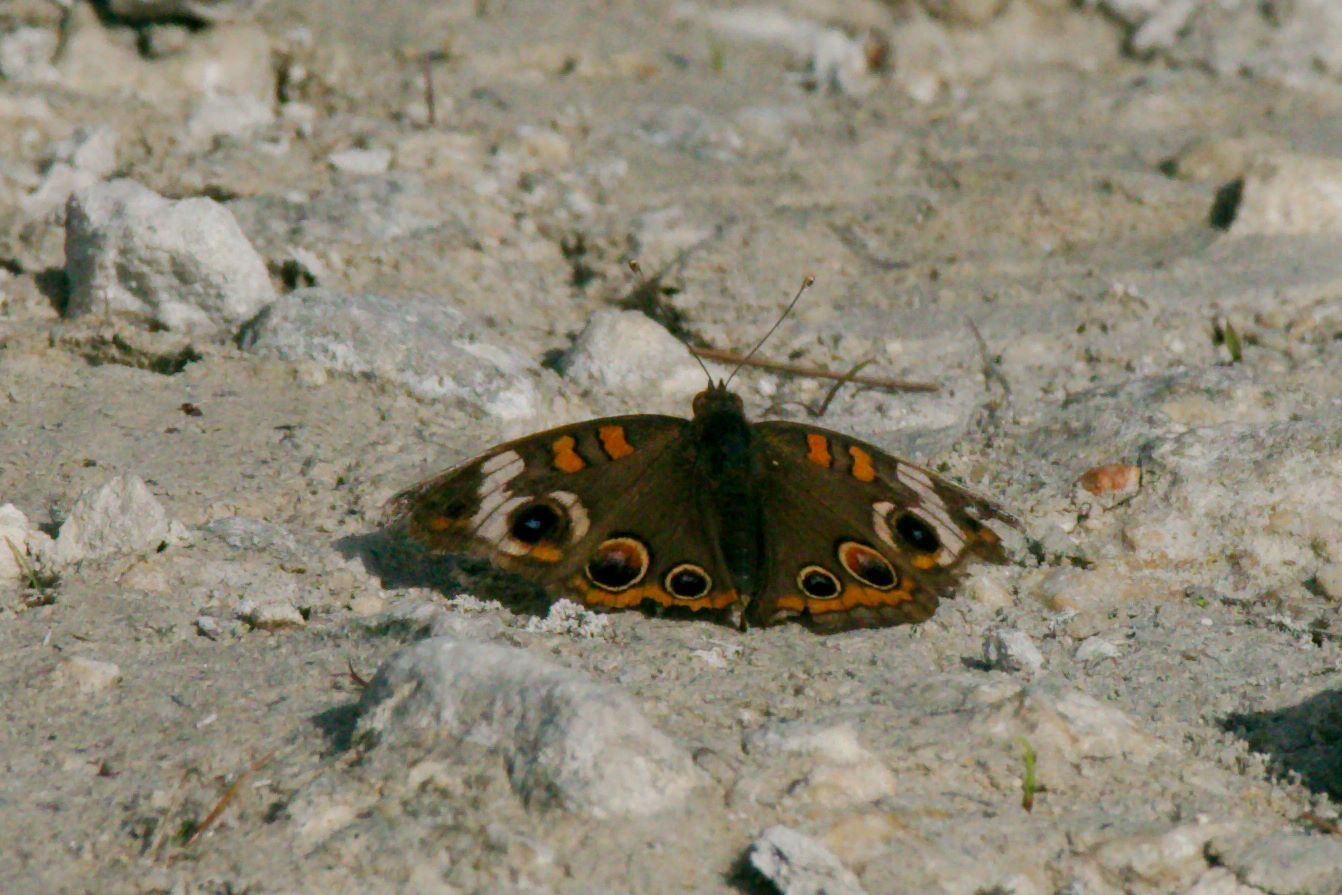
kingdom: Animalia
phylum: Arthropoda
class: Insecta
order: Lepidoptera
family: Nymphalidae
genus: Junonia
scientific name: Junonia coenia
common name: Common buckeye
